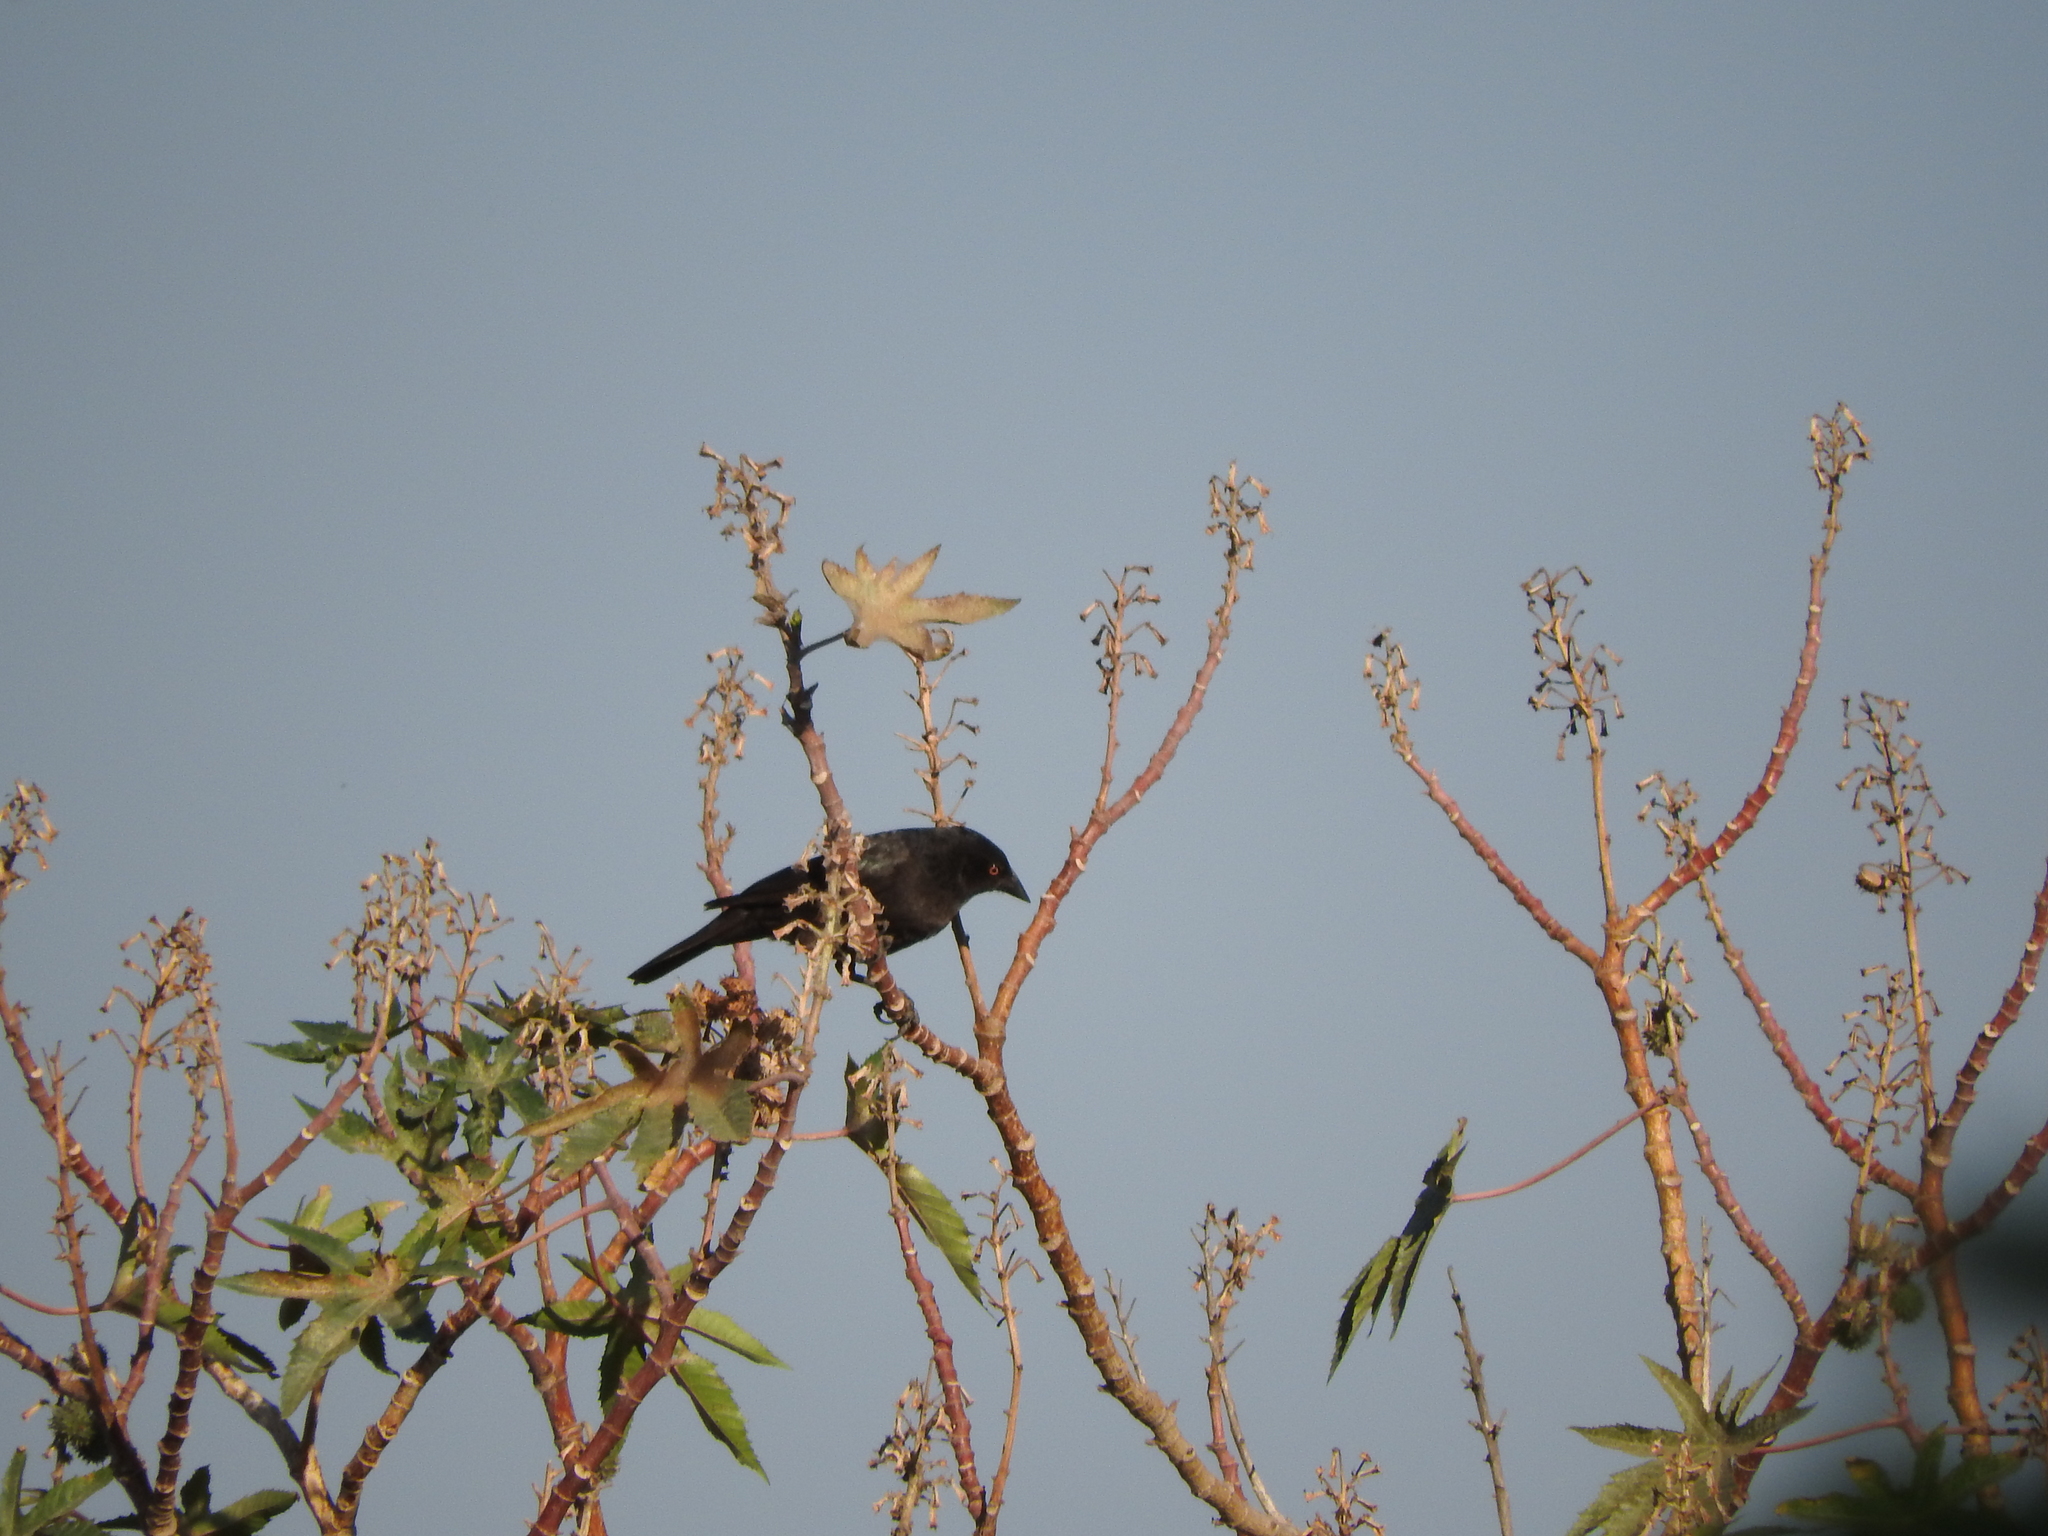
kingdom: Animalia
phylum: Chordata
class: Aves
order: Passeriformes
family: Icteridae
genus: Molothrus
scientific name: Molothrus aeneus
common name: Bronzed cowbird
